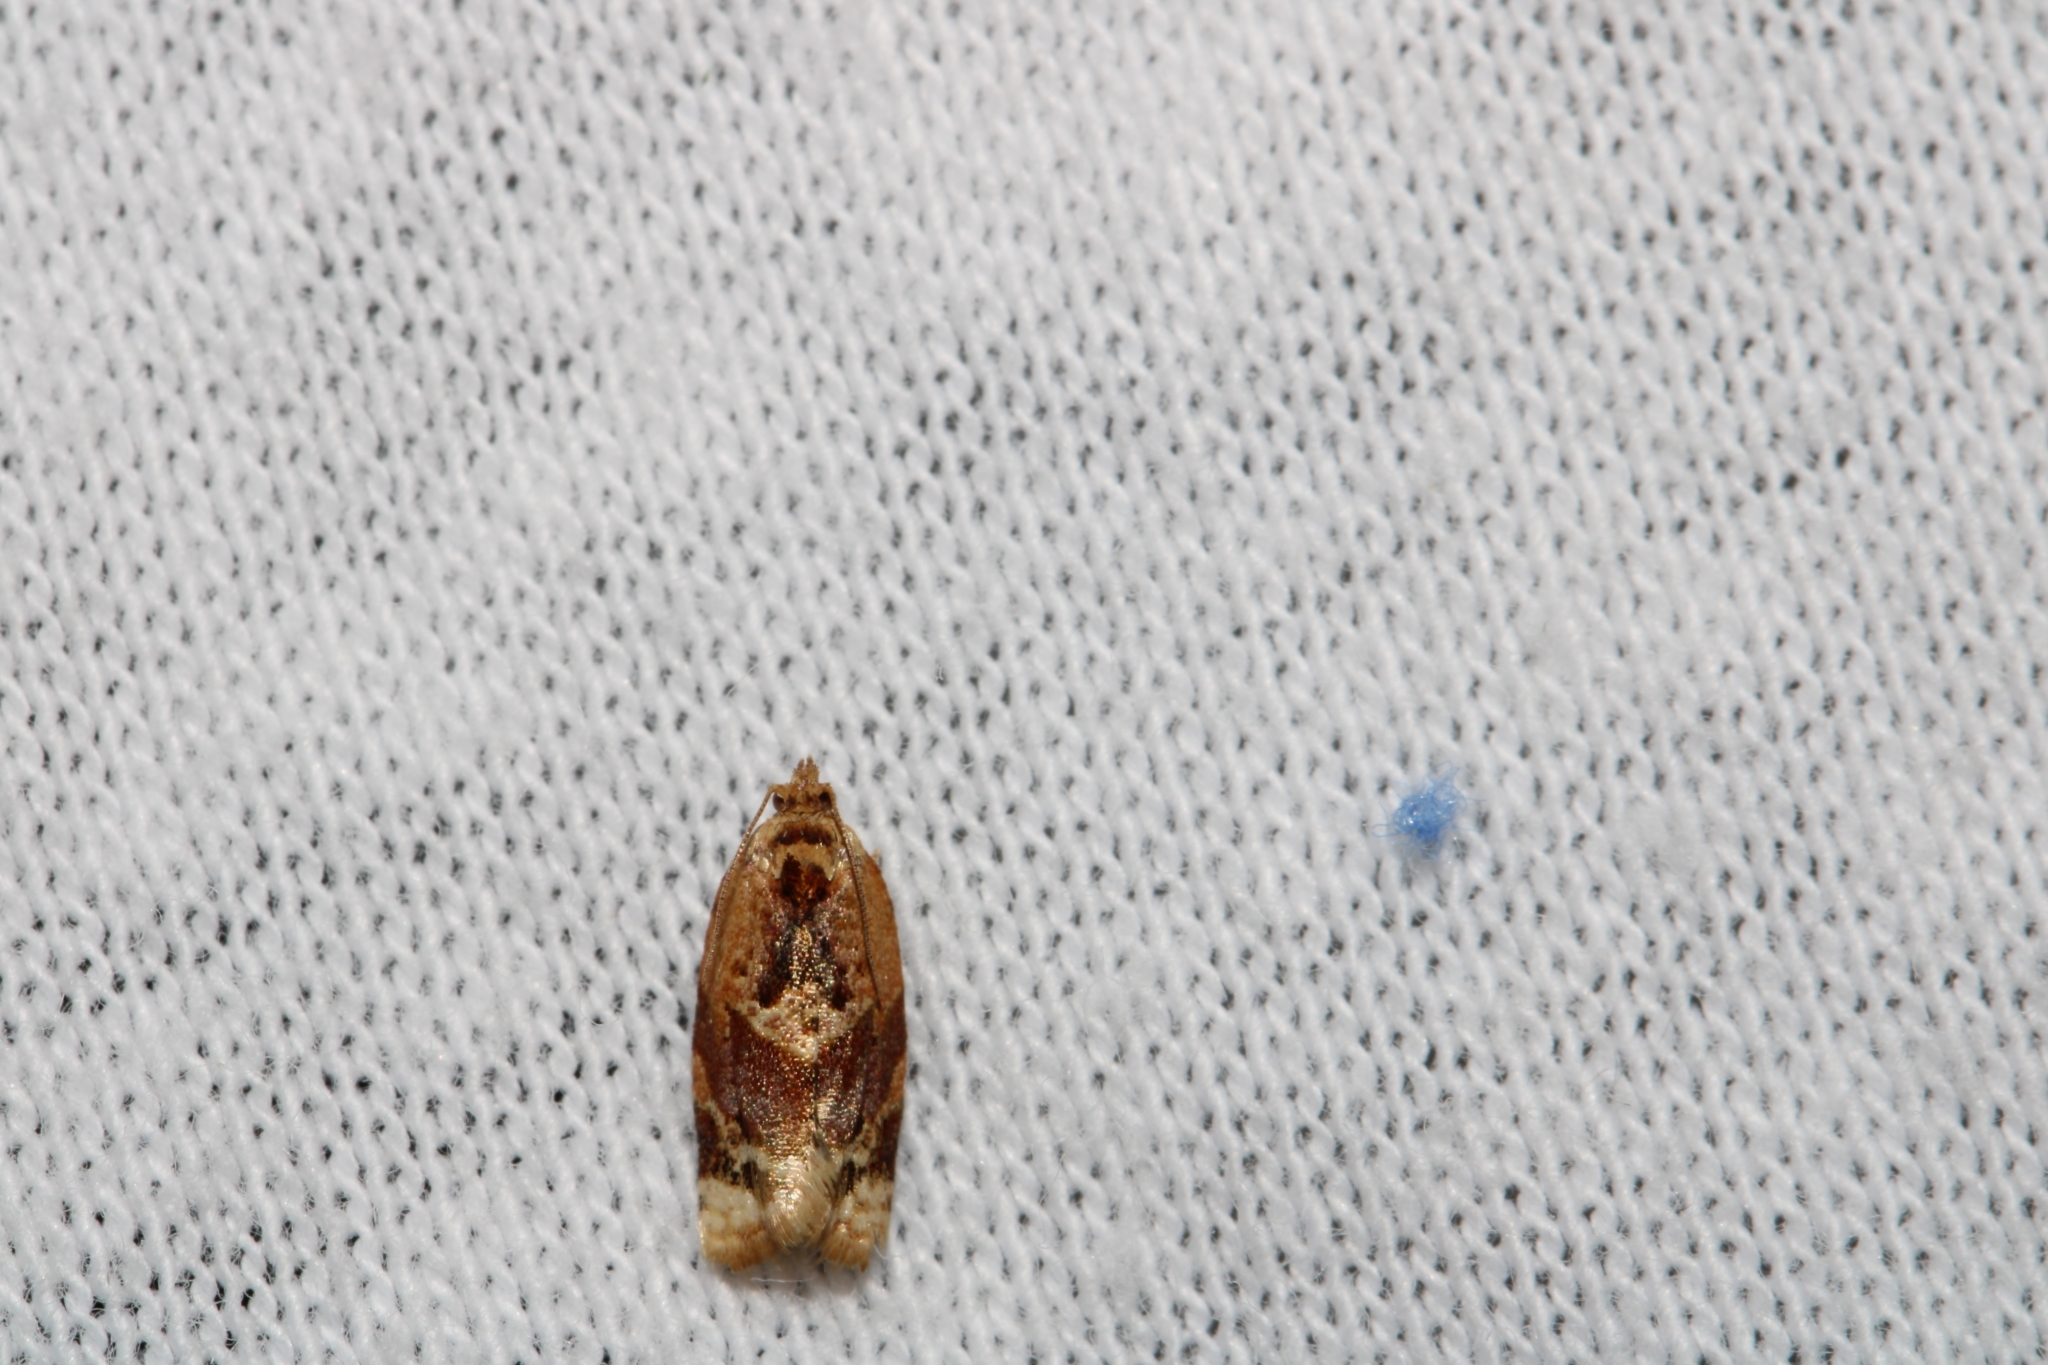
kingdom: Animalia
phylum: Arthropoda
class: Insecta
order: Lepidoptera
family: Tortricidae
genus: Argyrotaenia
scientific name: Argyrotaenia velutinana
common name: Red-banded leafroller moth
